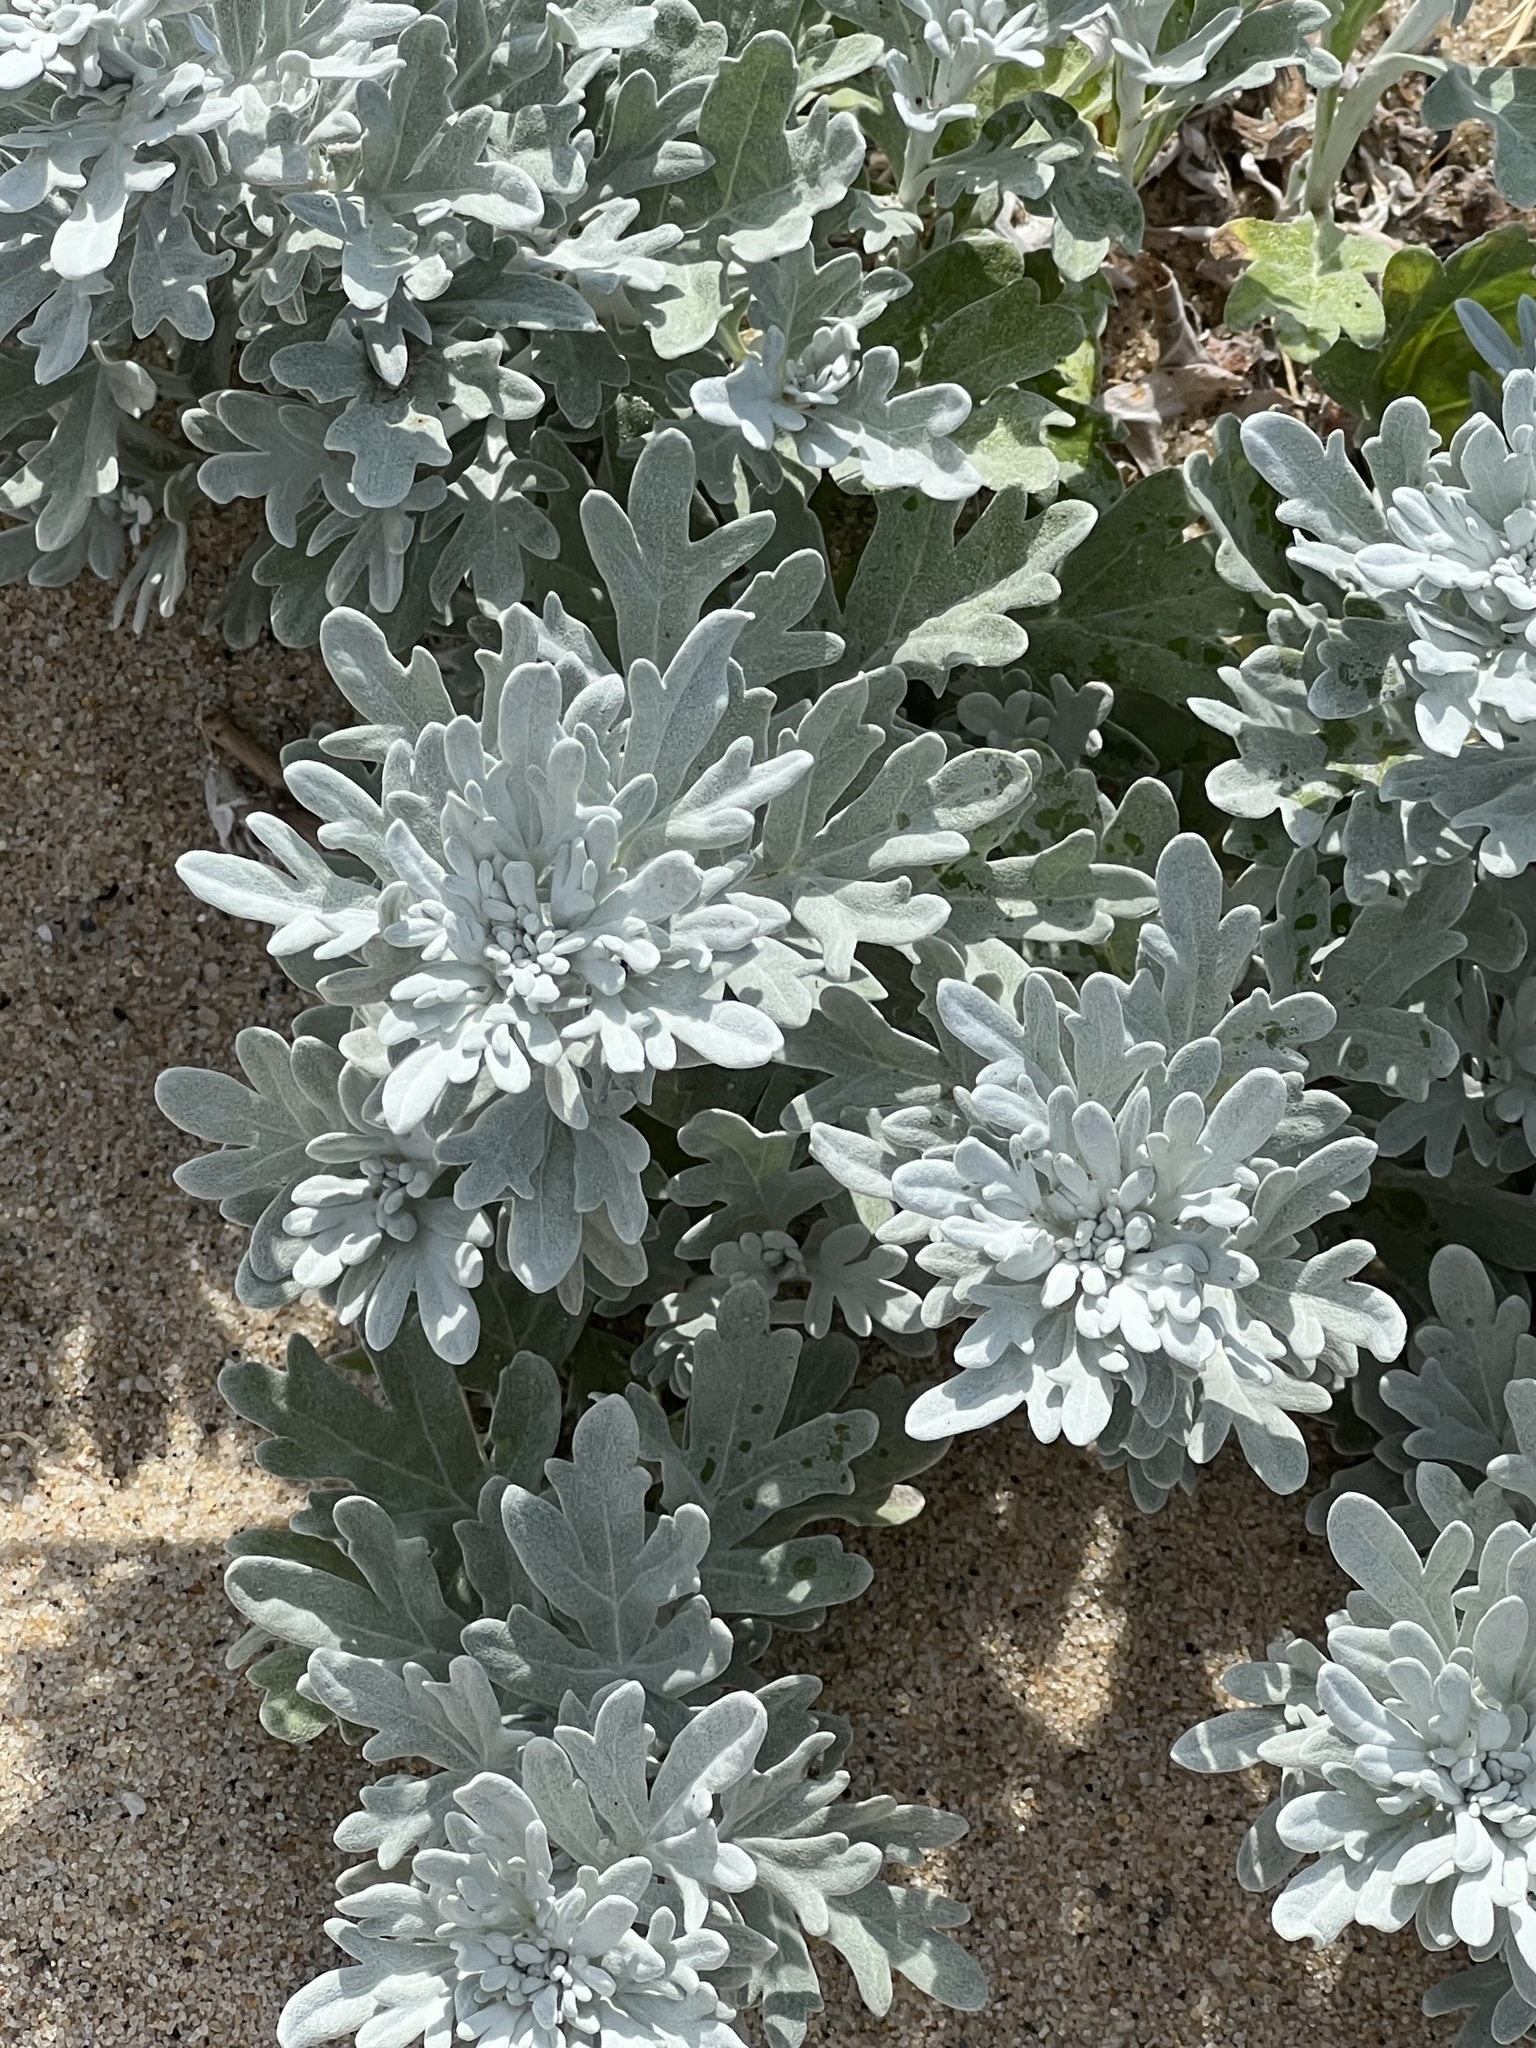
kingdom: Plantae
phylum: Tracheophyta
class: Magnoliopsida
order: Asterales
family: Asteraceae
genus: Artemisia
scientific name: Artemisia stelleriana
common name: Beach wormwood
